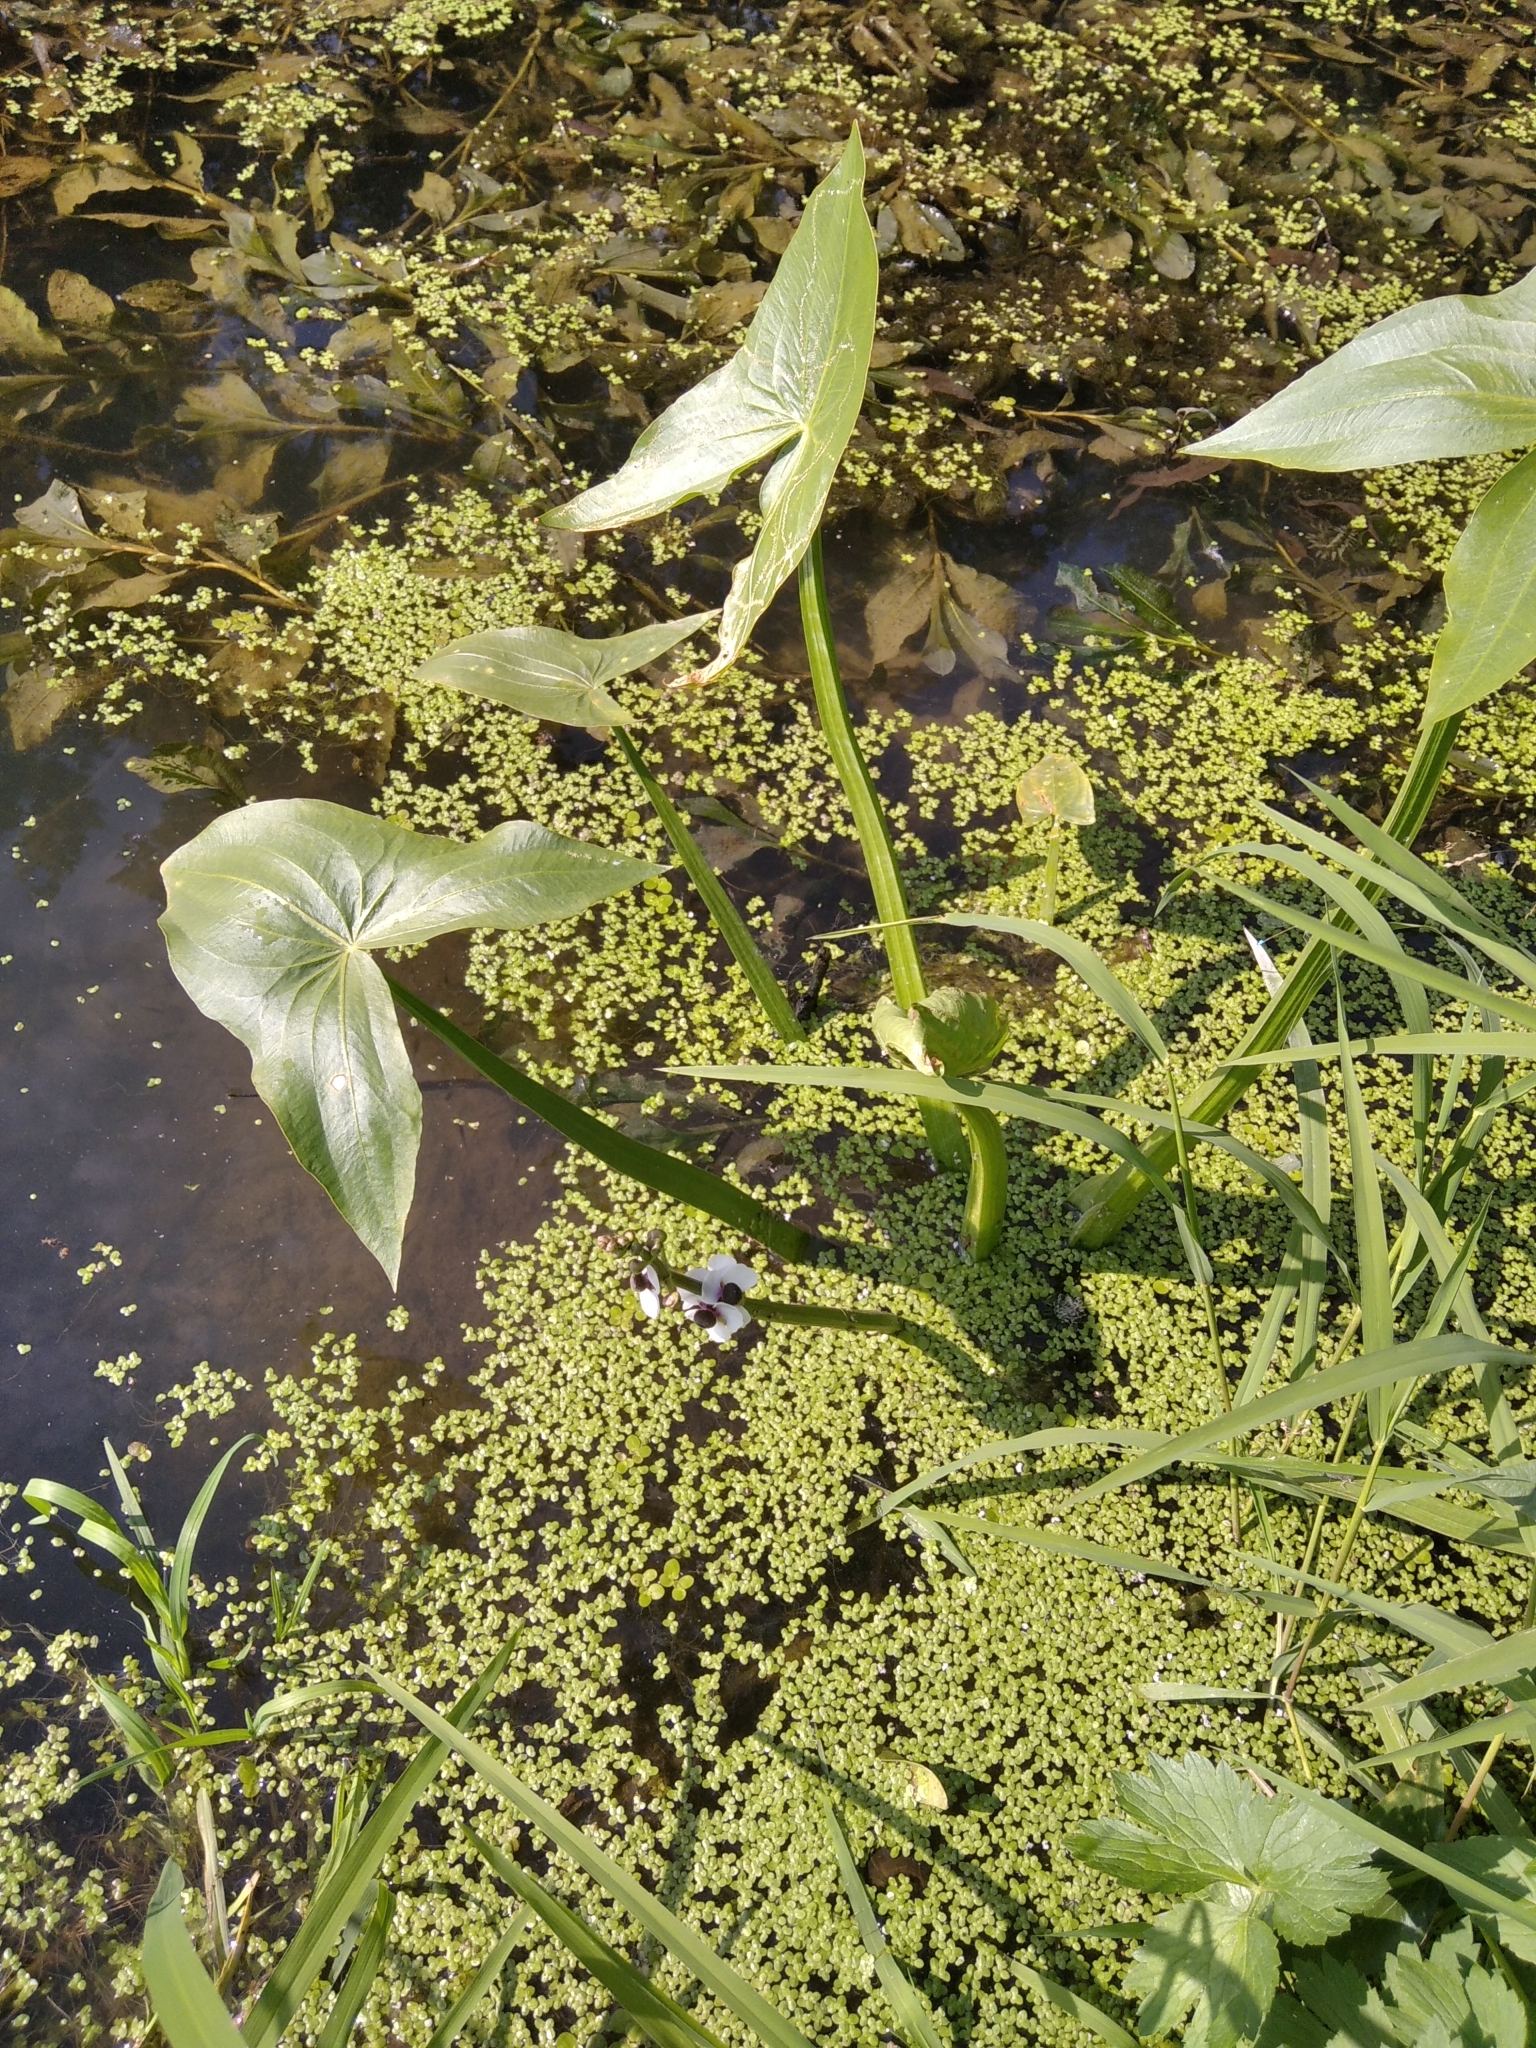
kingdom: Plantae
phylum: Tracheophyta
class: Liliopsida
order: Alismatales
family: Alismataceae
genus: Sagittaria
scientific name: Sagittaria sagittifolia
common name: Arrowhead
